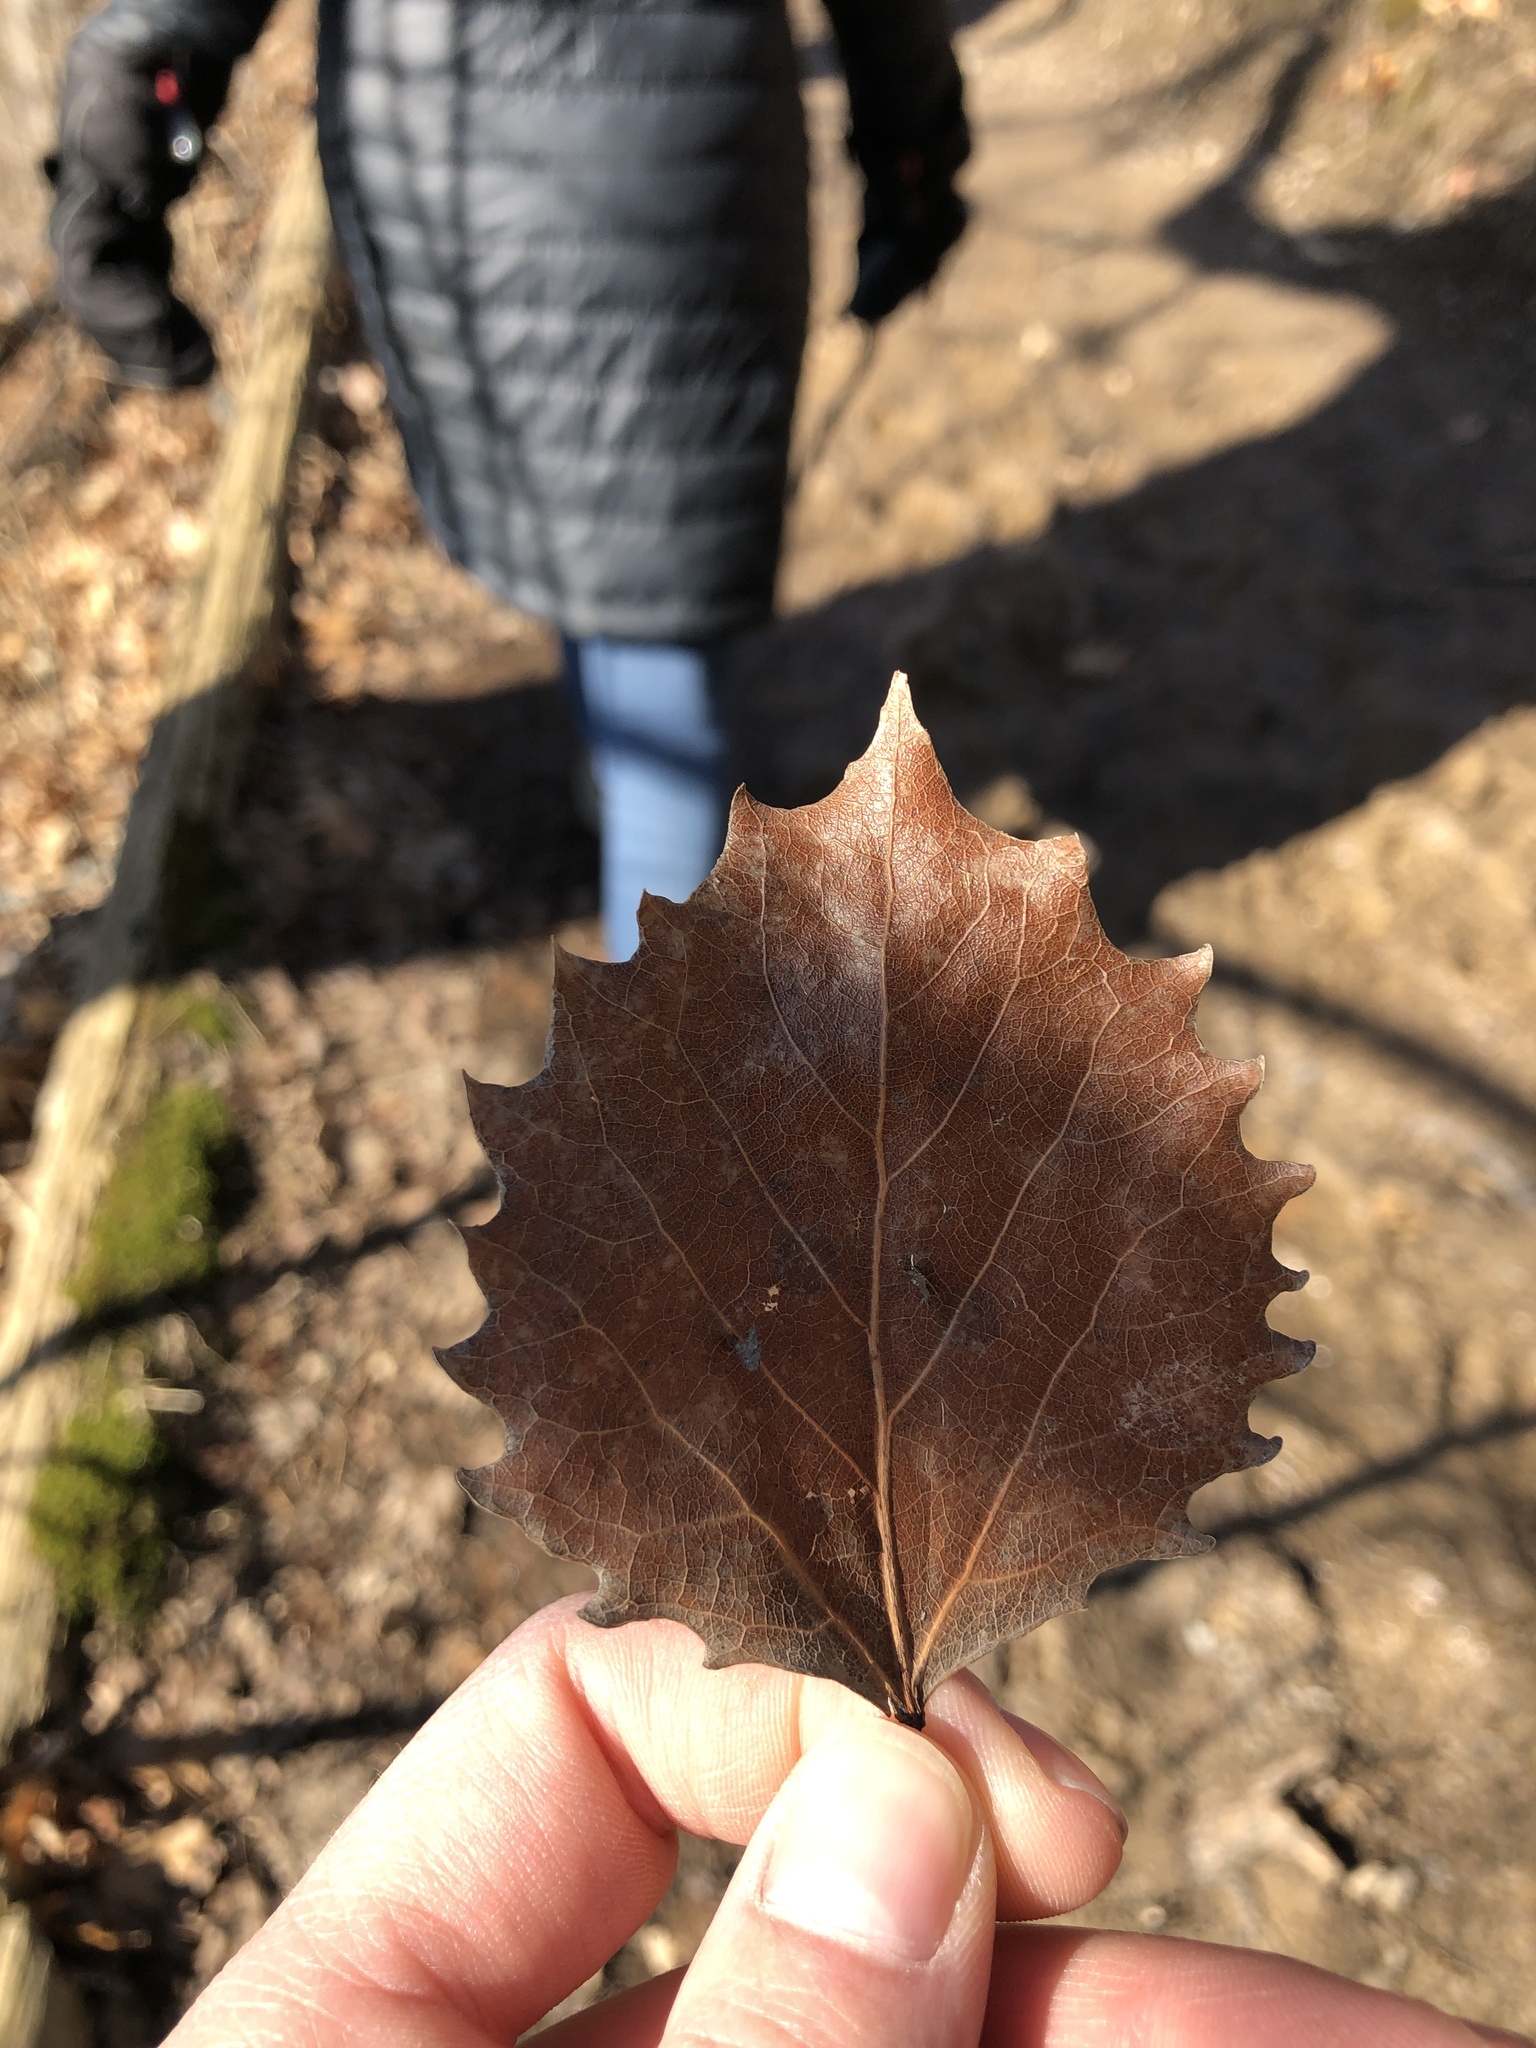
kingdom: Plantae
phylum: Tracheophyta
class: Magnoliopsida
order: Malpighiales
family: Salicaceae
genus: Populus
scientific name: Populus grandidentata
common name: Bigtooth aspen
